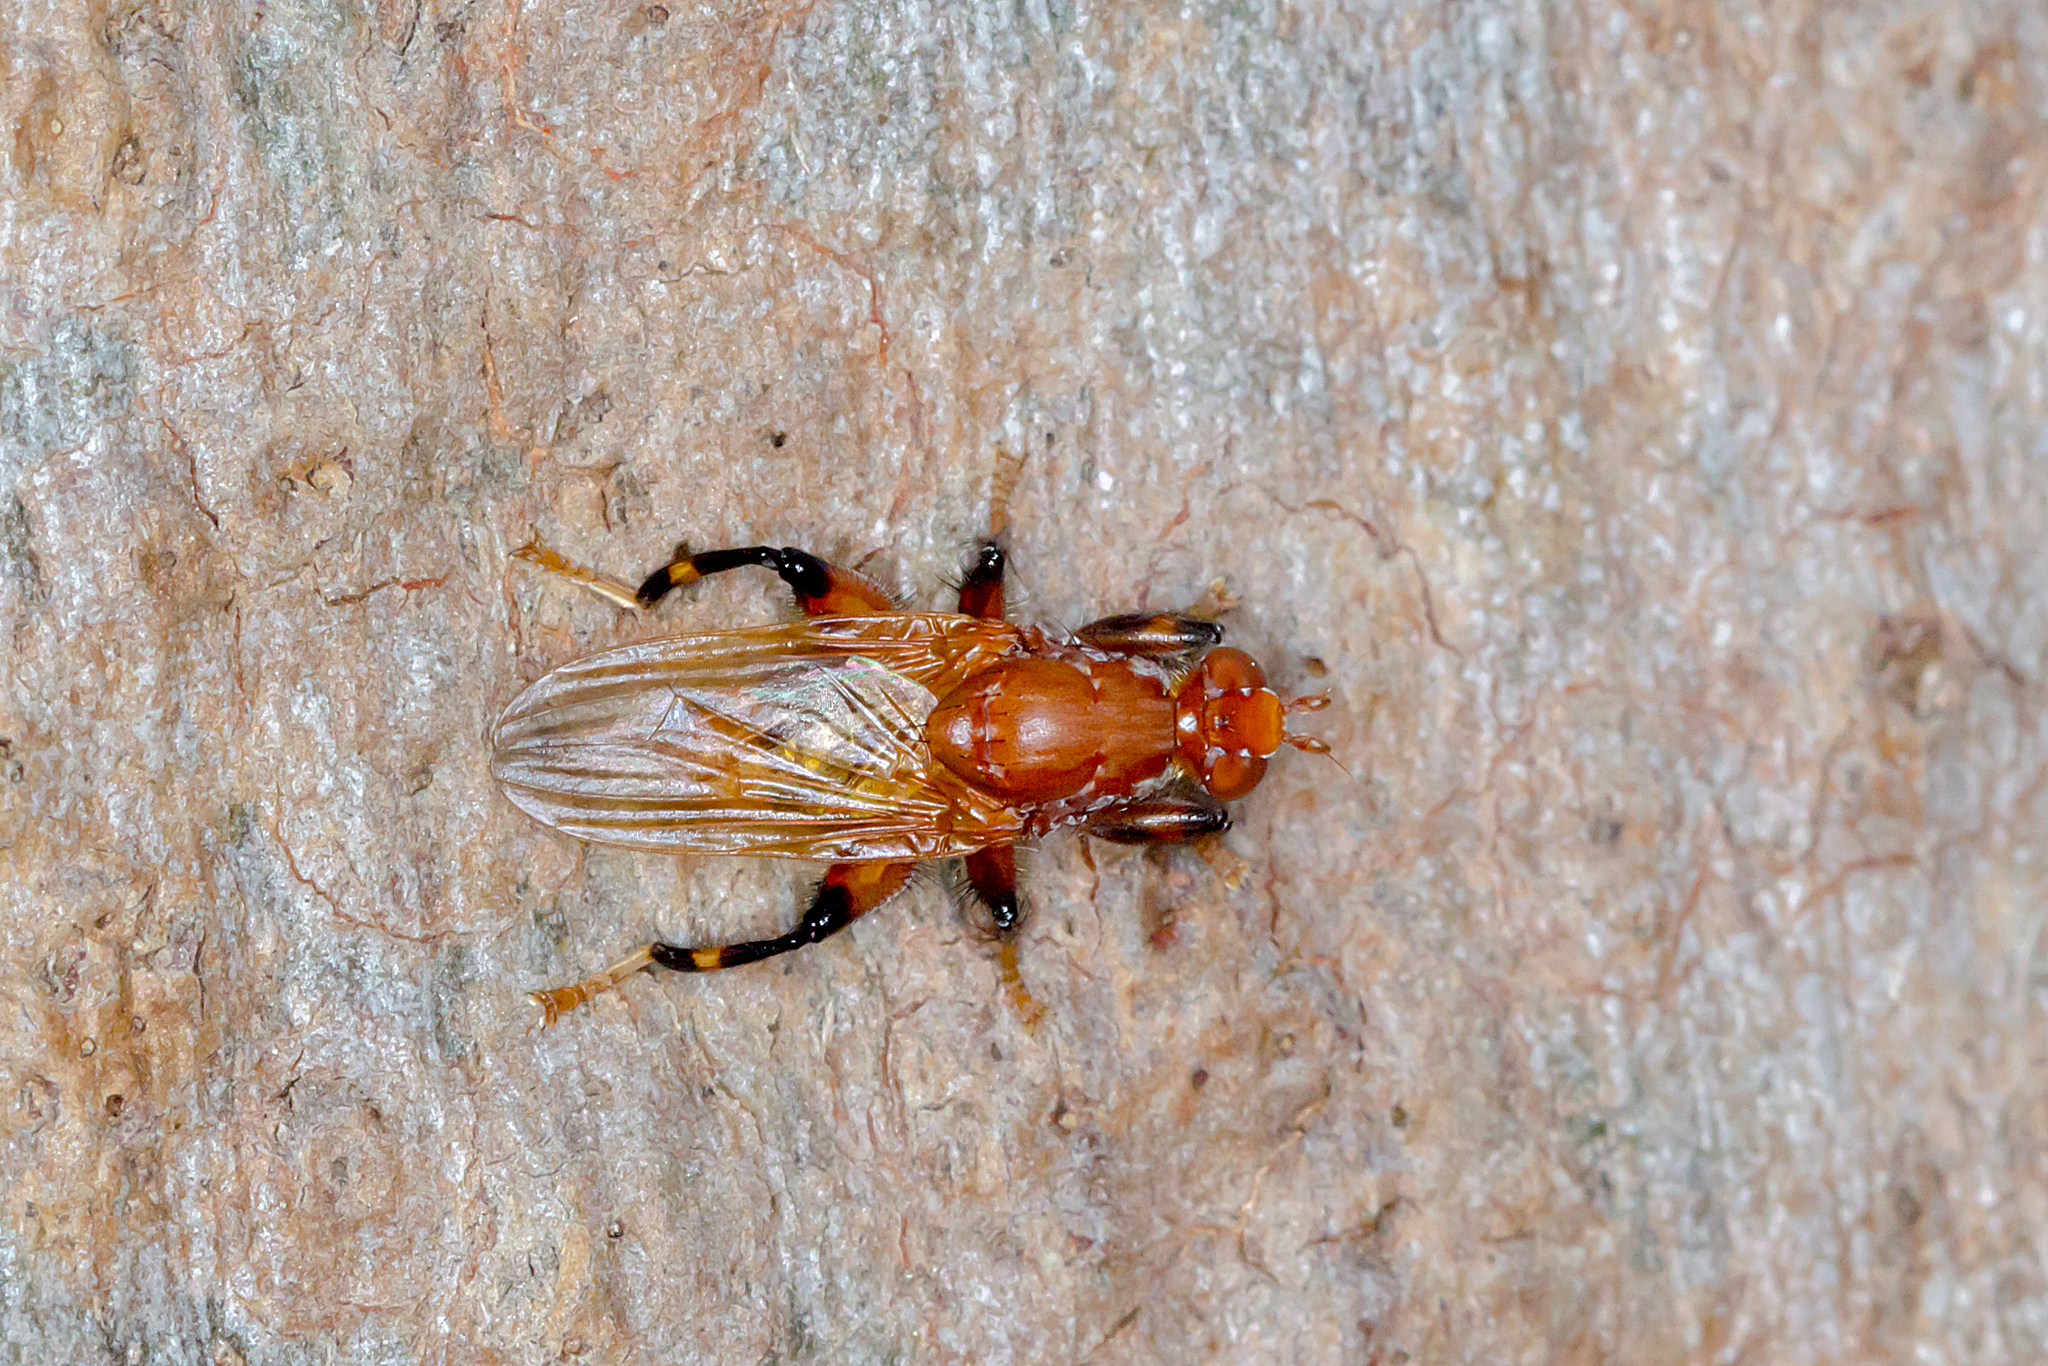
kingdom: Animalia
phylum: Arthropoda
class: Insecta
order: Diptera
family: Heleomyzidae
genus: Tapeigaster
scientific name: Tapeigaster argyrospila
